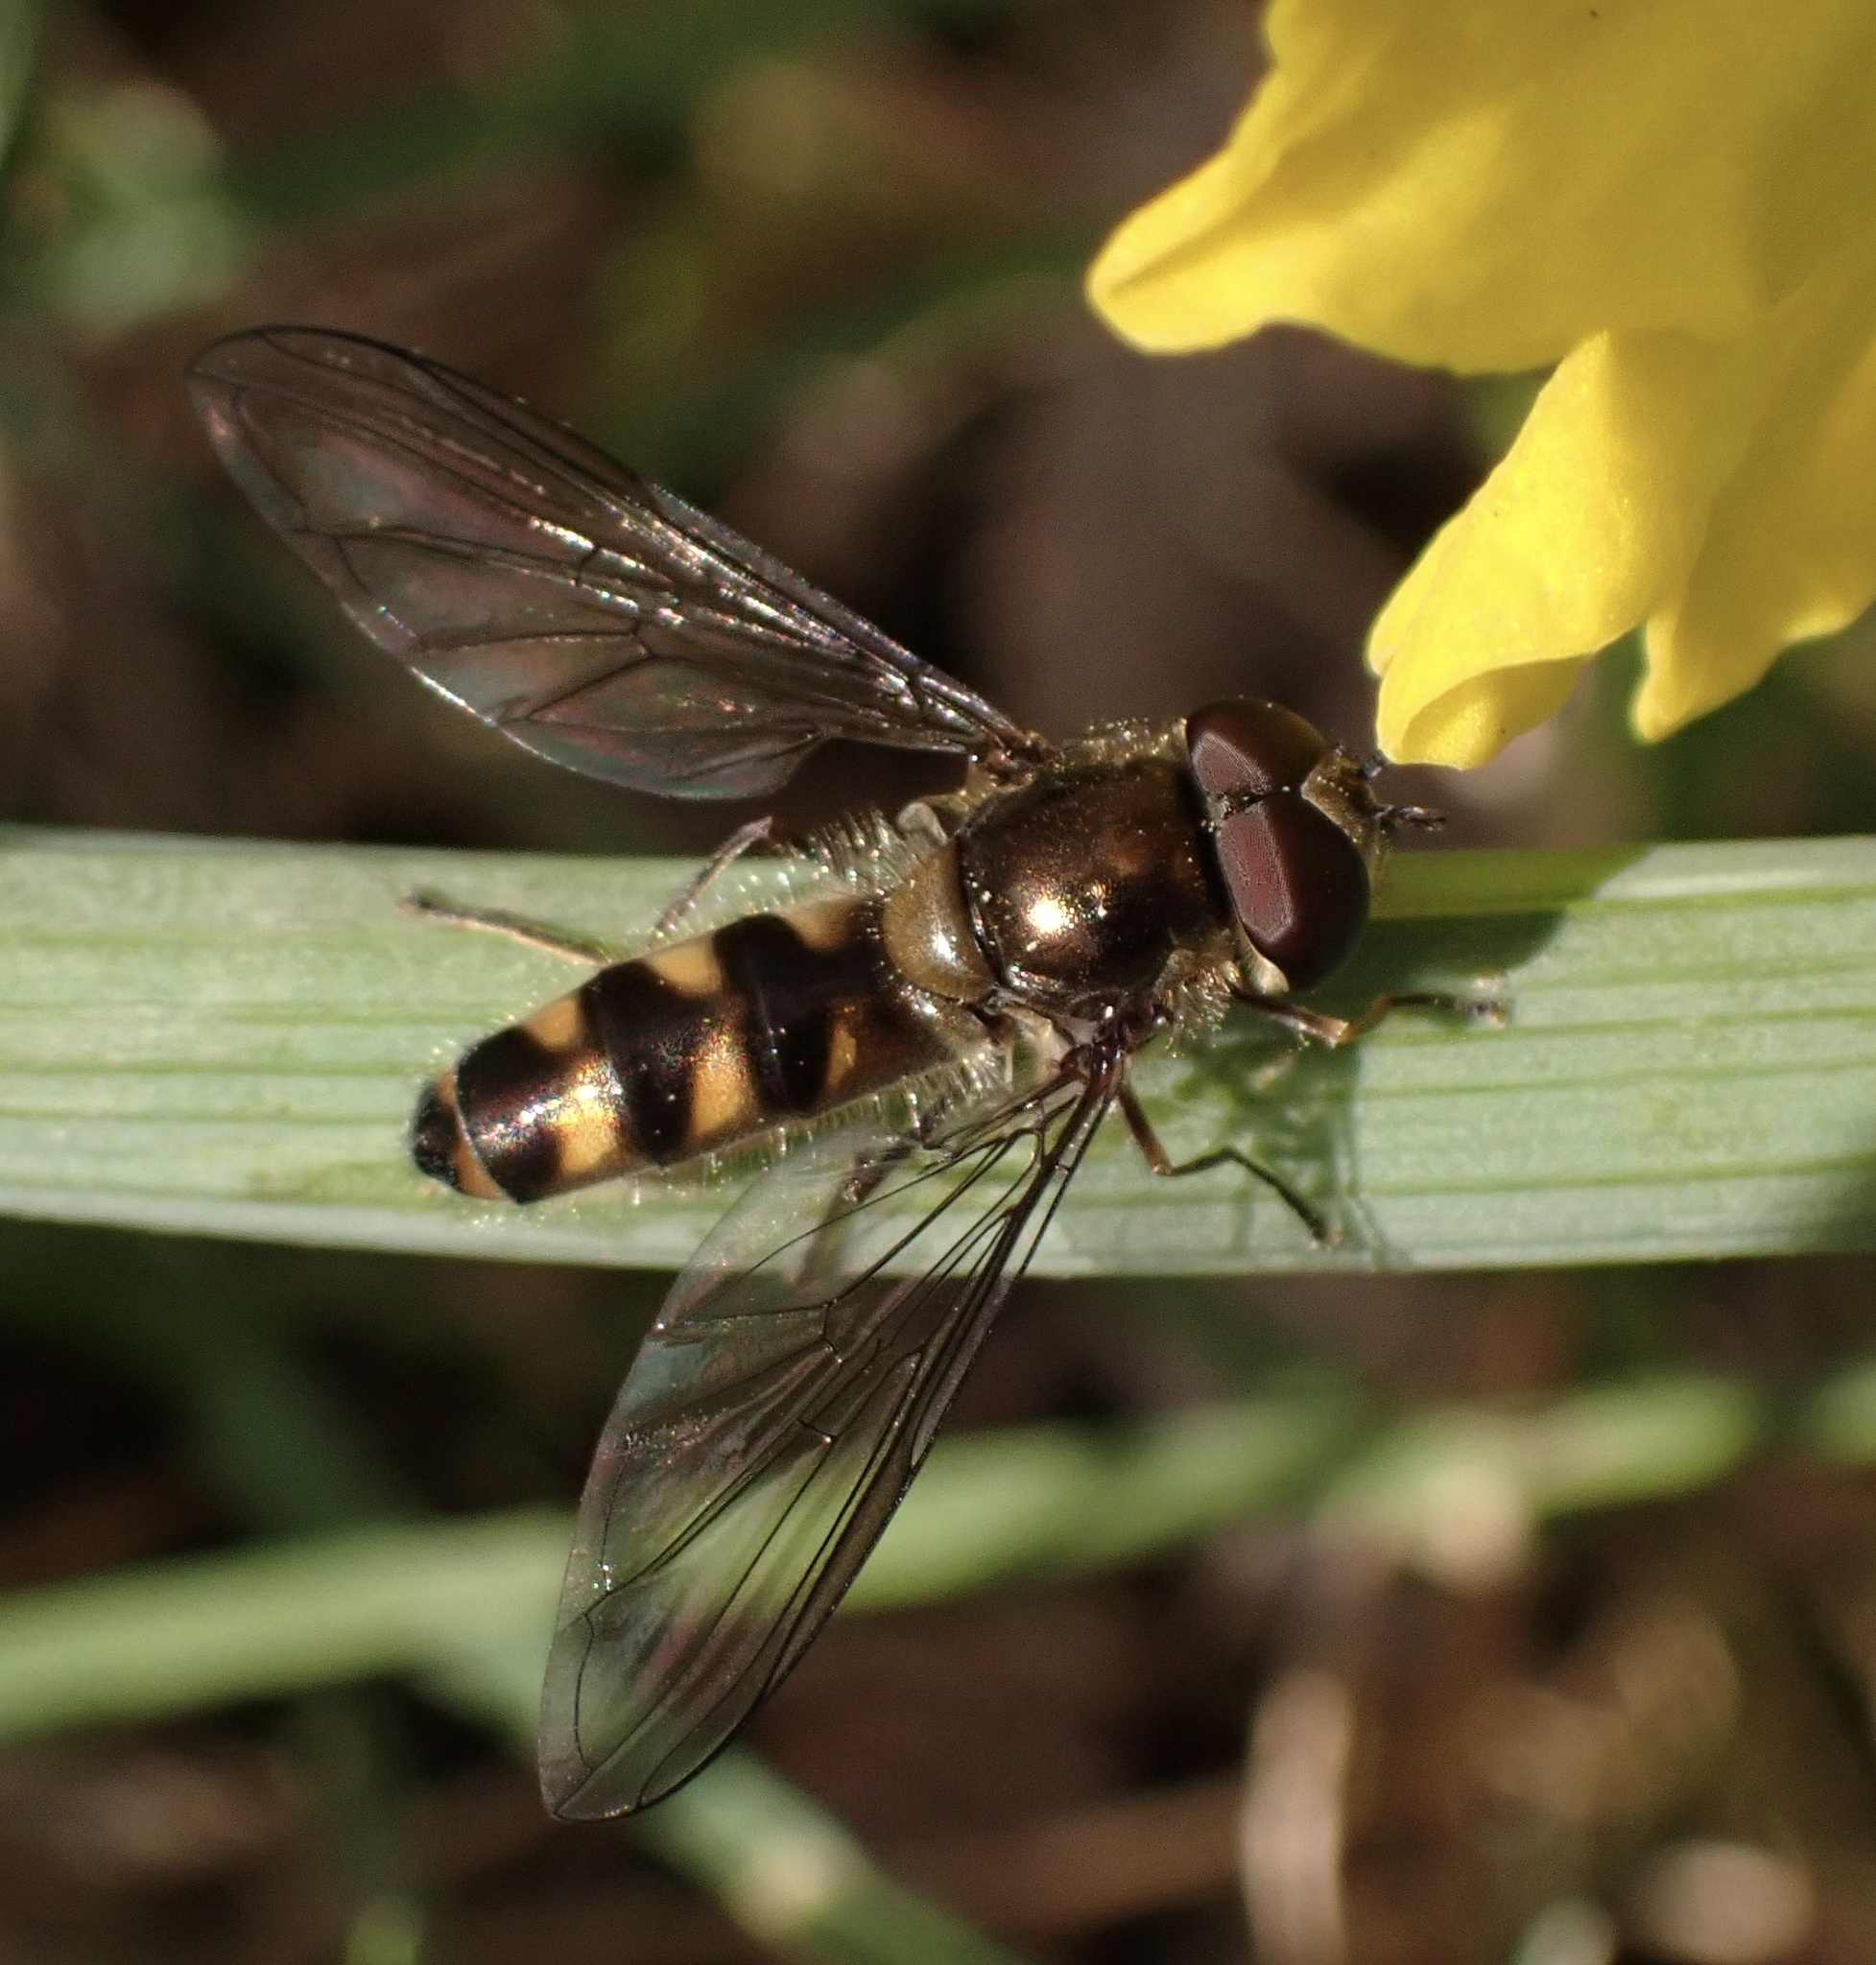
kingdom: Animalia
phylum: Arthropoda
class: Insecta
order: Diptera
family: Syrphidae
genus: Meliscaeva
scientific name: Meliscaeva auricollis
